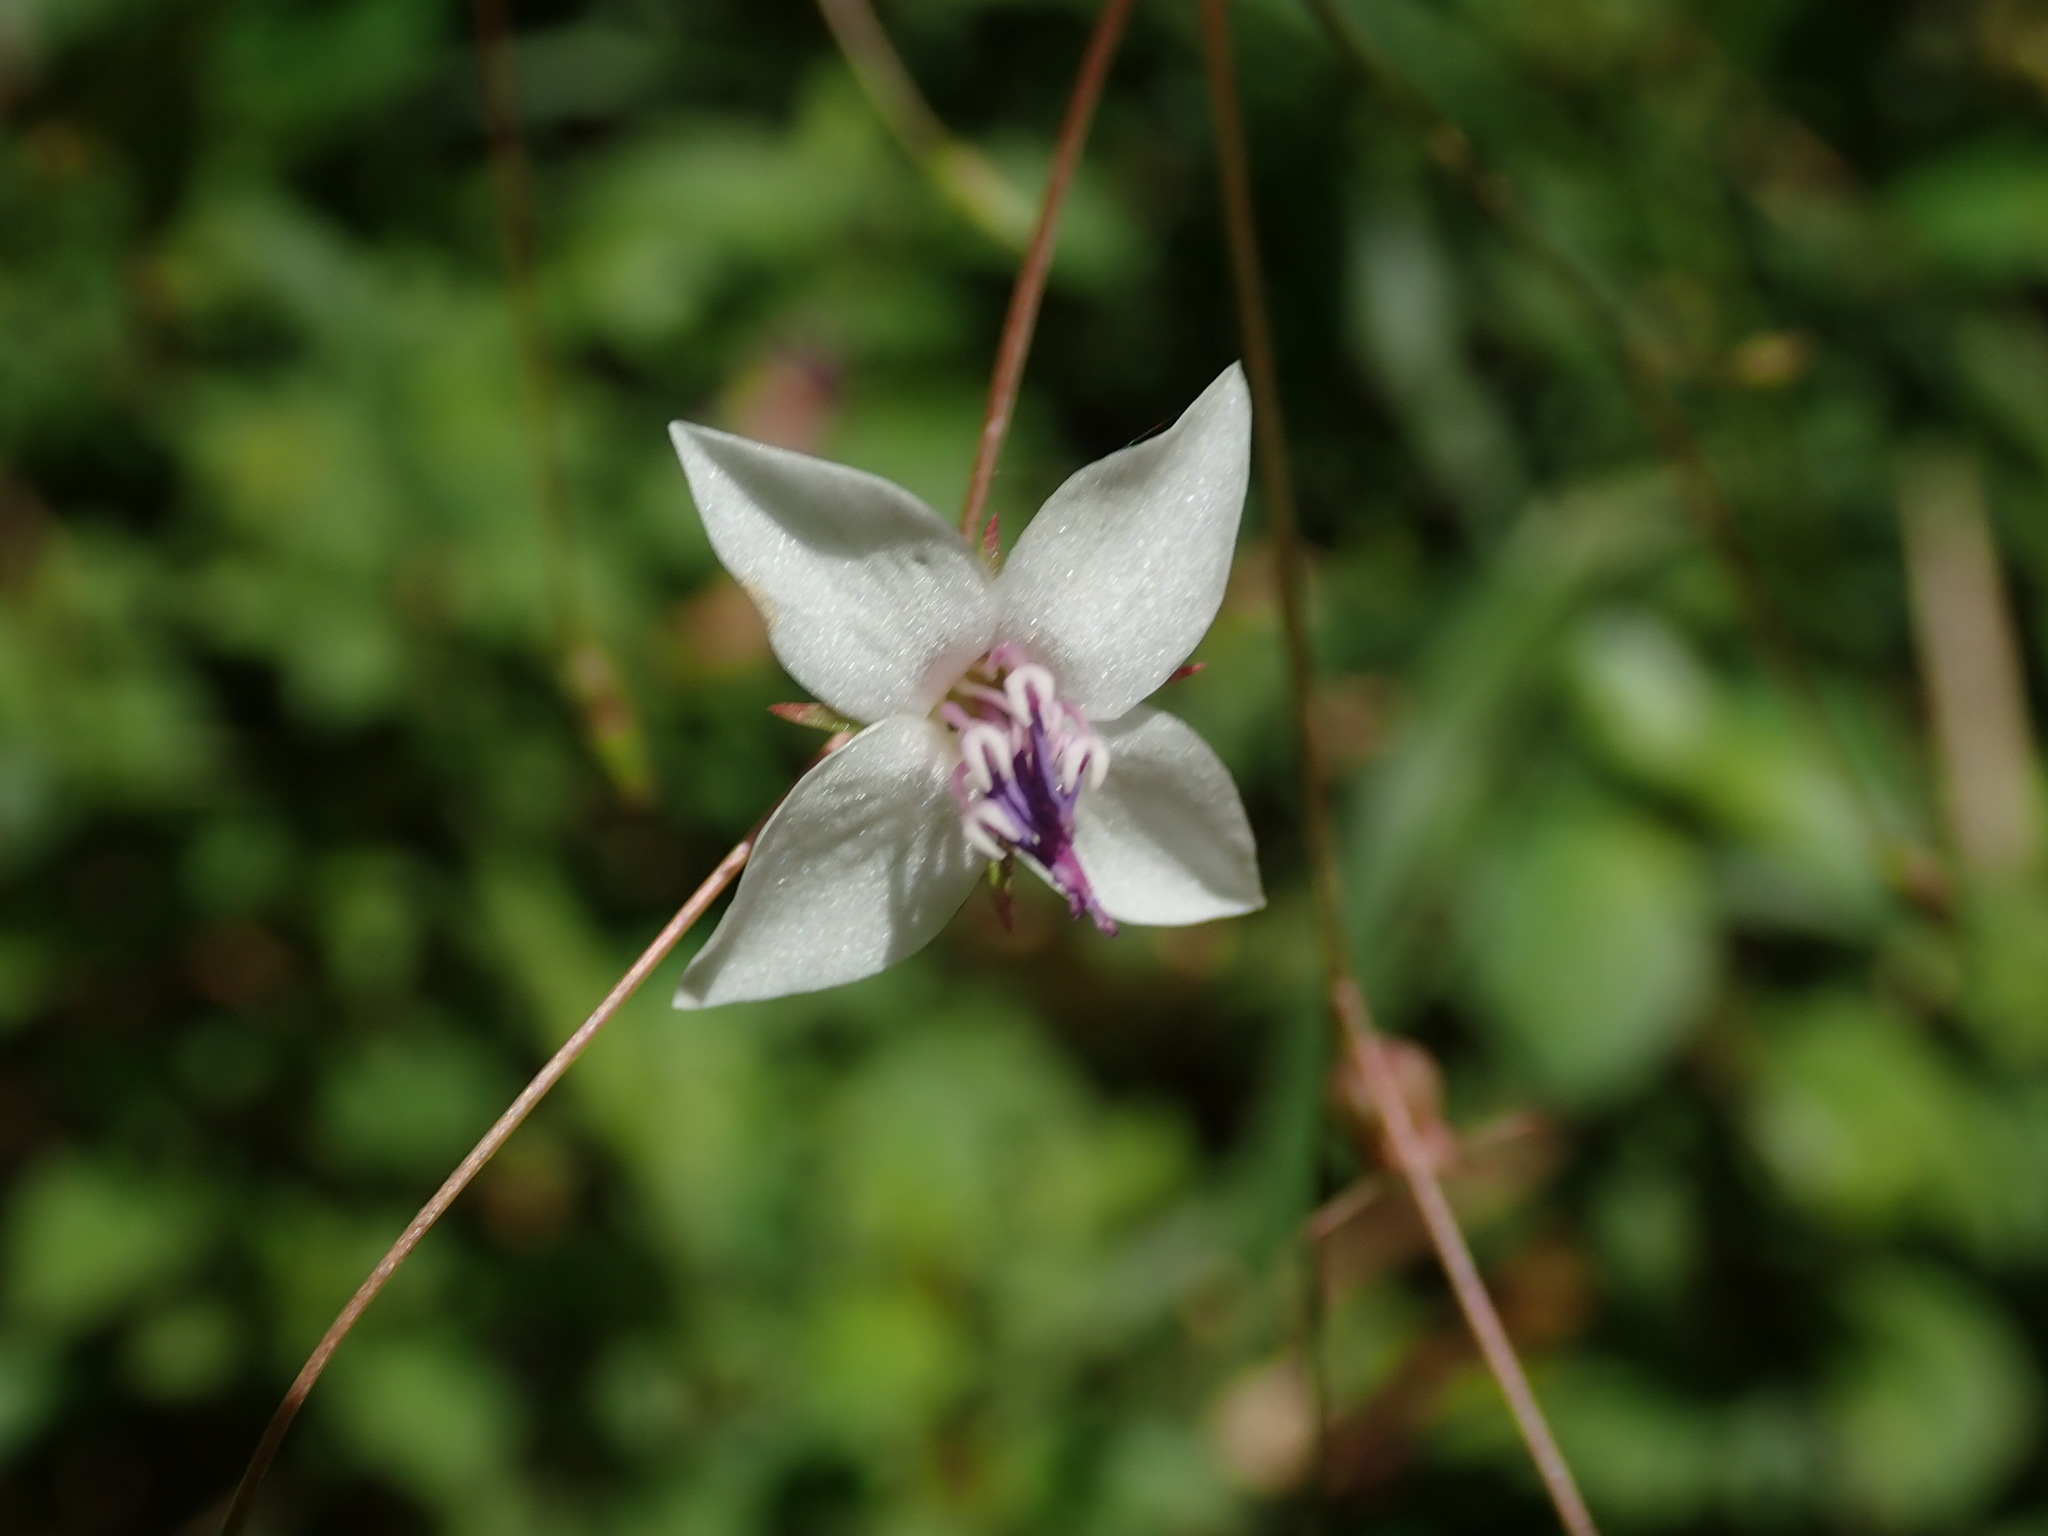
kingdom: Plantae
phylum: Tracheophyta
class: Magnoliopsida
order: Myrtales
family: Melastomataceae
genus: Nepsera
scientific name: Nepsera aquatica
